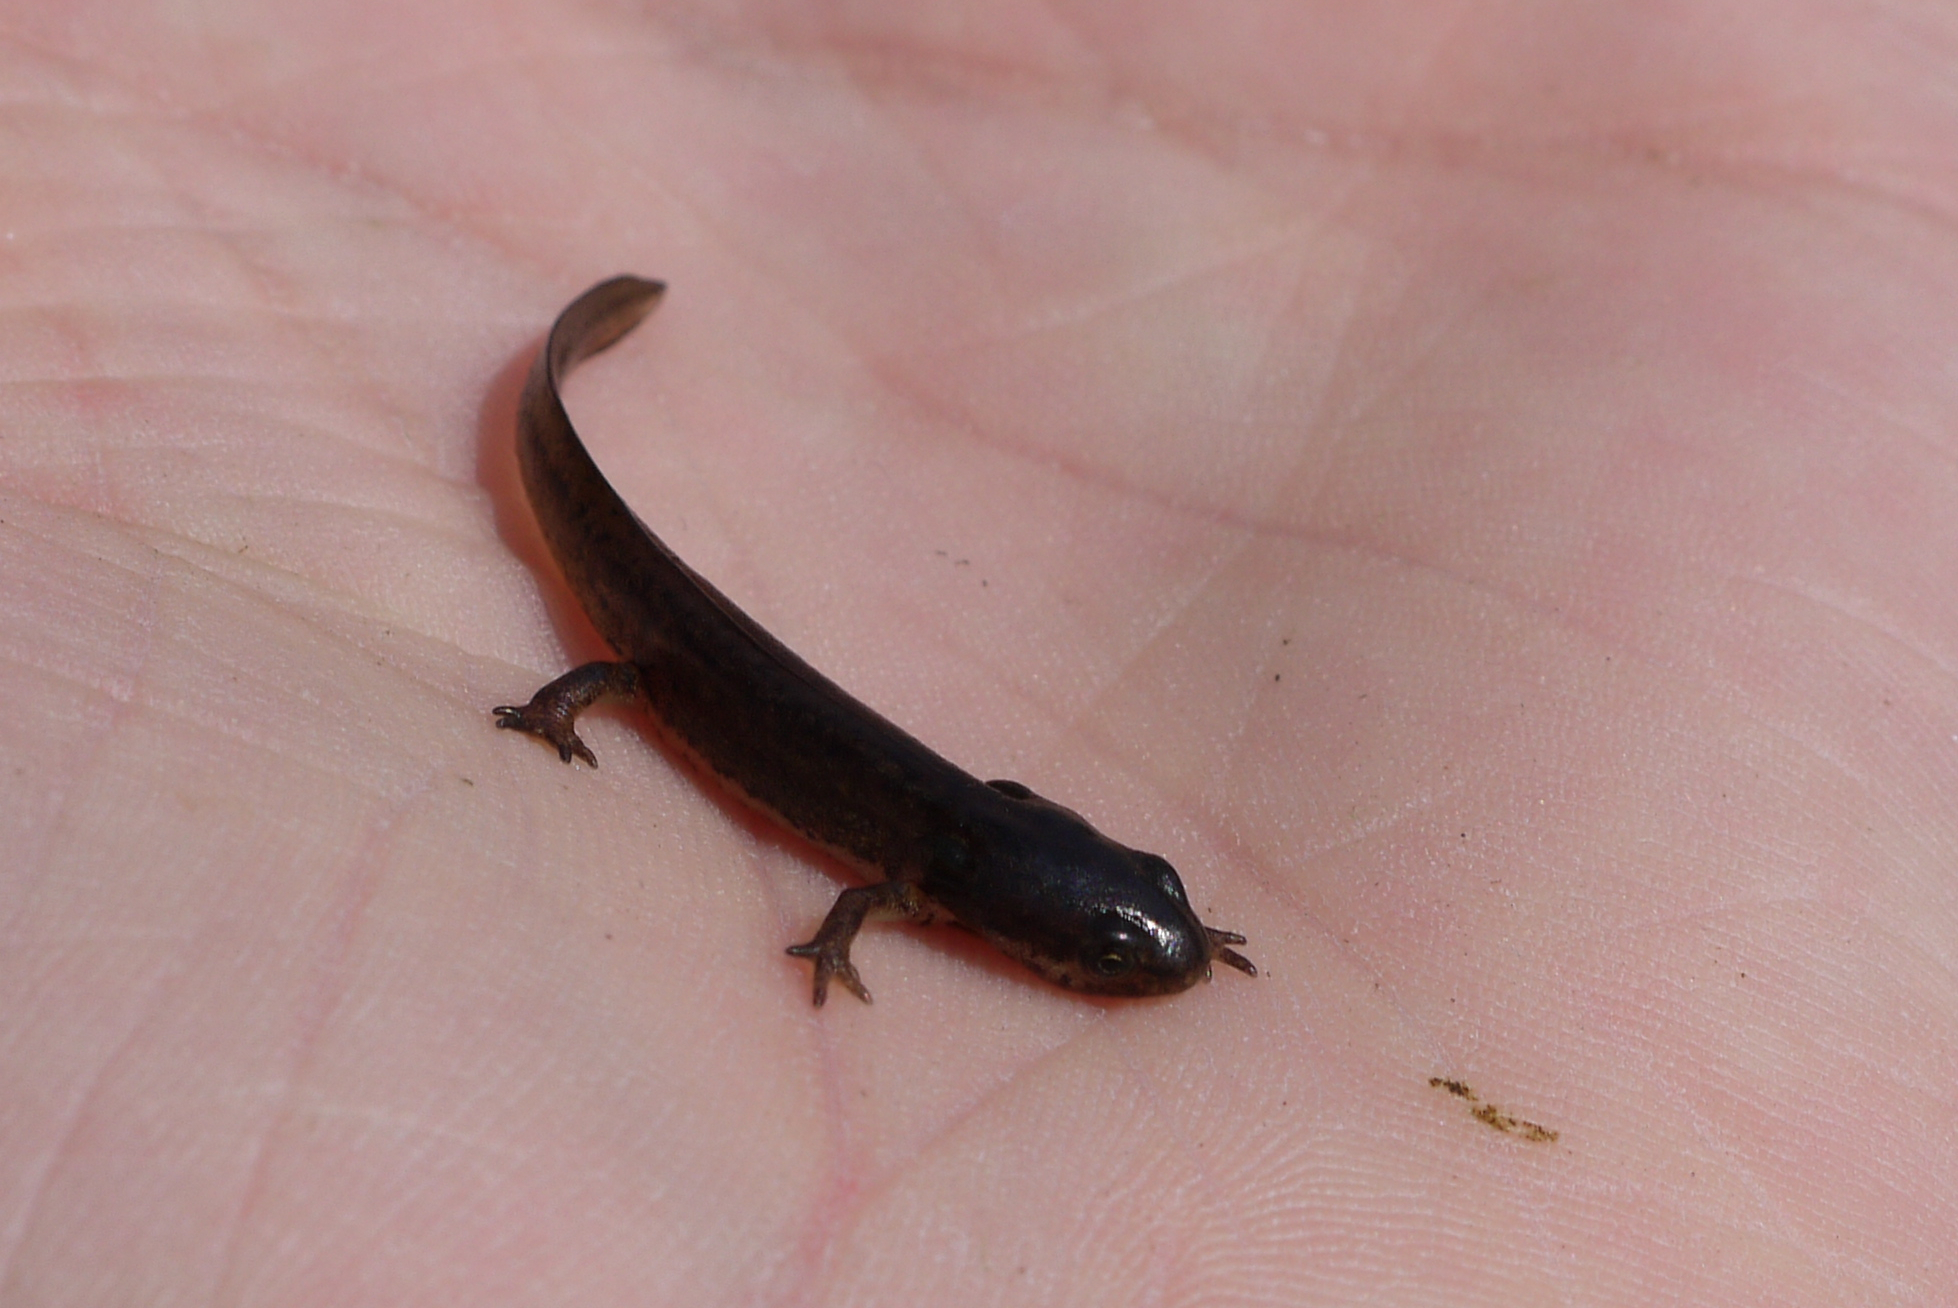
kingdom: Animalia
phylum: Chordata
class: Amphibia
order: Caudata
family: Salamandridae
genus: Lissotriton
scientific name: Lissotriton vulgaris
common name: Smooth newt
